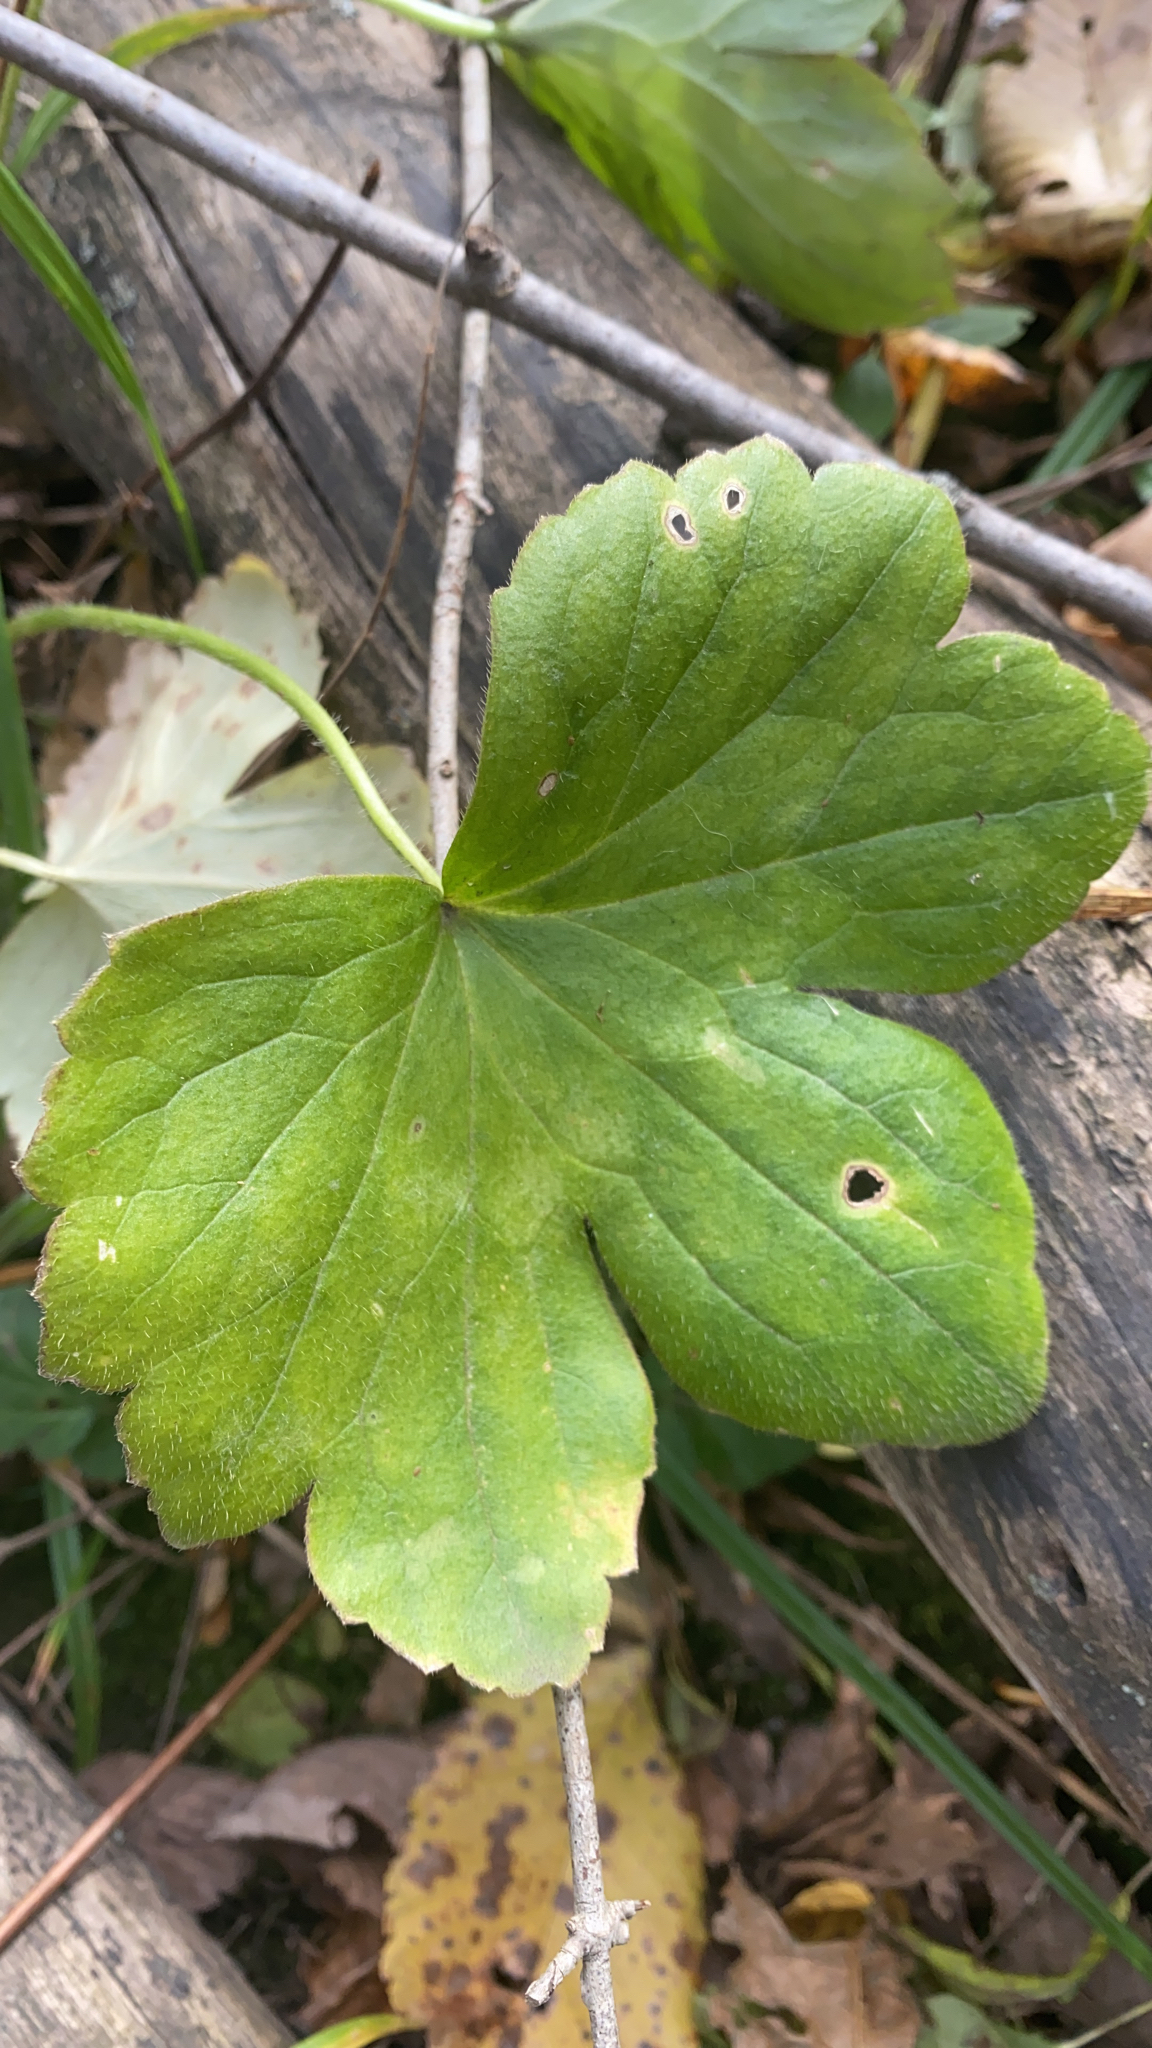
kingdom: Plantae
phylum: Tracheophyta
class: Magnoliopsida
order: Ranunculales
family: Ranunculaceae
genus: Ranunculus
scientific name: Ranunculus recurvatus
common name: Blisterwort
